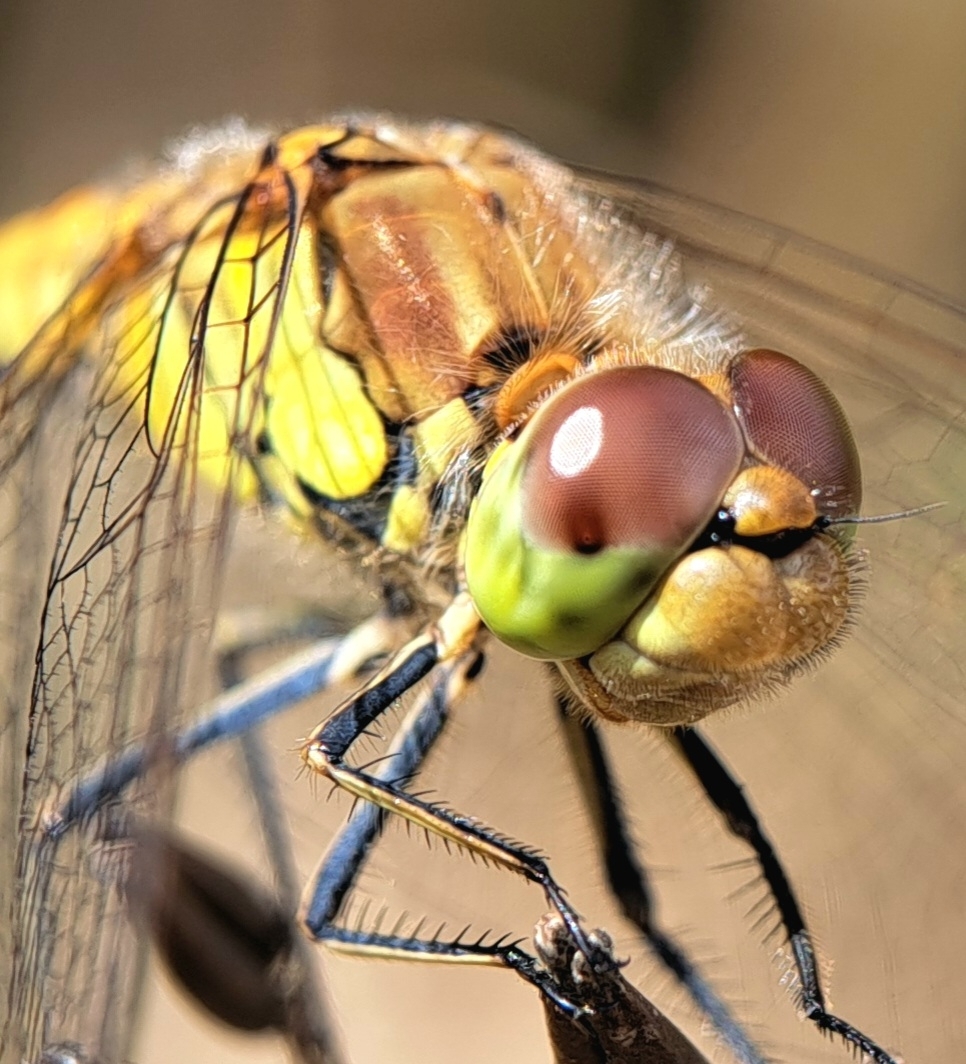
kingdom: Animalia
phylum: Arthropoda
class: Insecta
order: Odonata
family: Libellulidae
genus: Sympetrum
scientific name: Sympetrum striolatum
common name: Common darter
